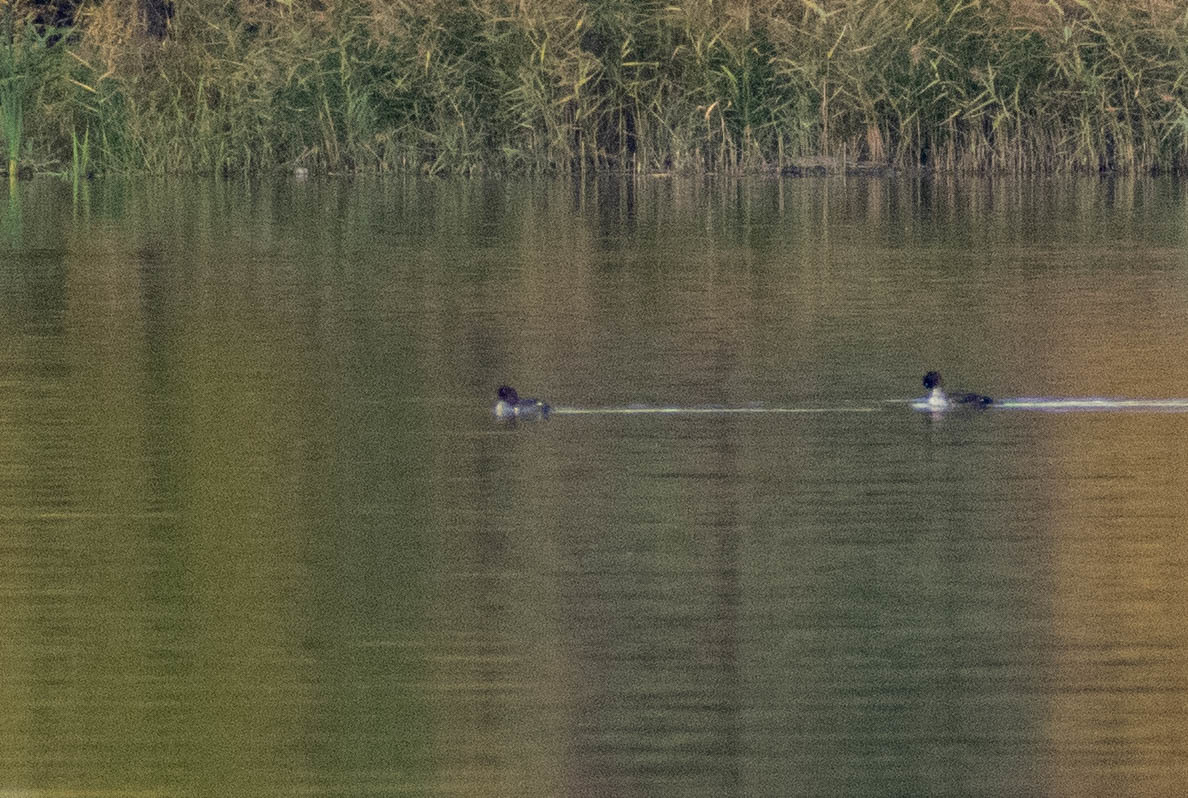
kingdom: Animalia
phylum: Chordata
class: Aves
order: Anseriformes
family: Anatidae
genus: Bucephala
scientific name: Bucephala clangula
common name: Common goldeneye
